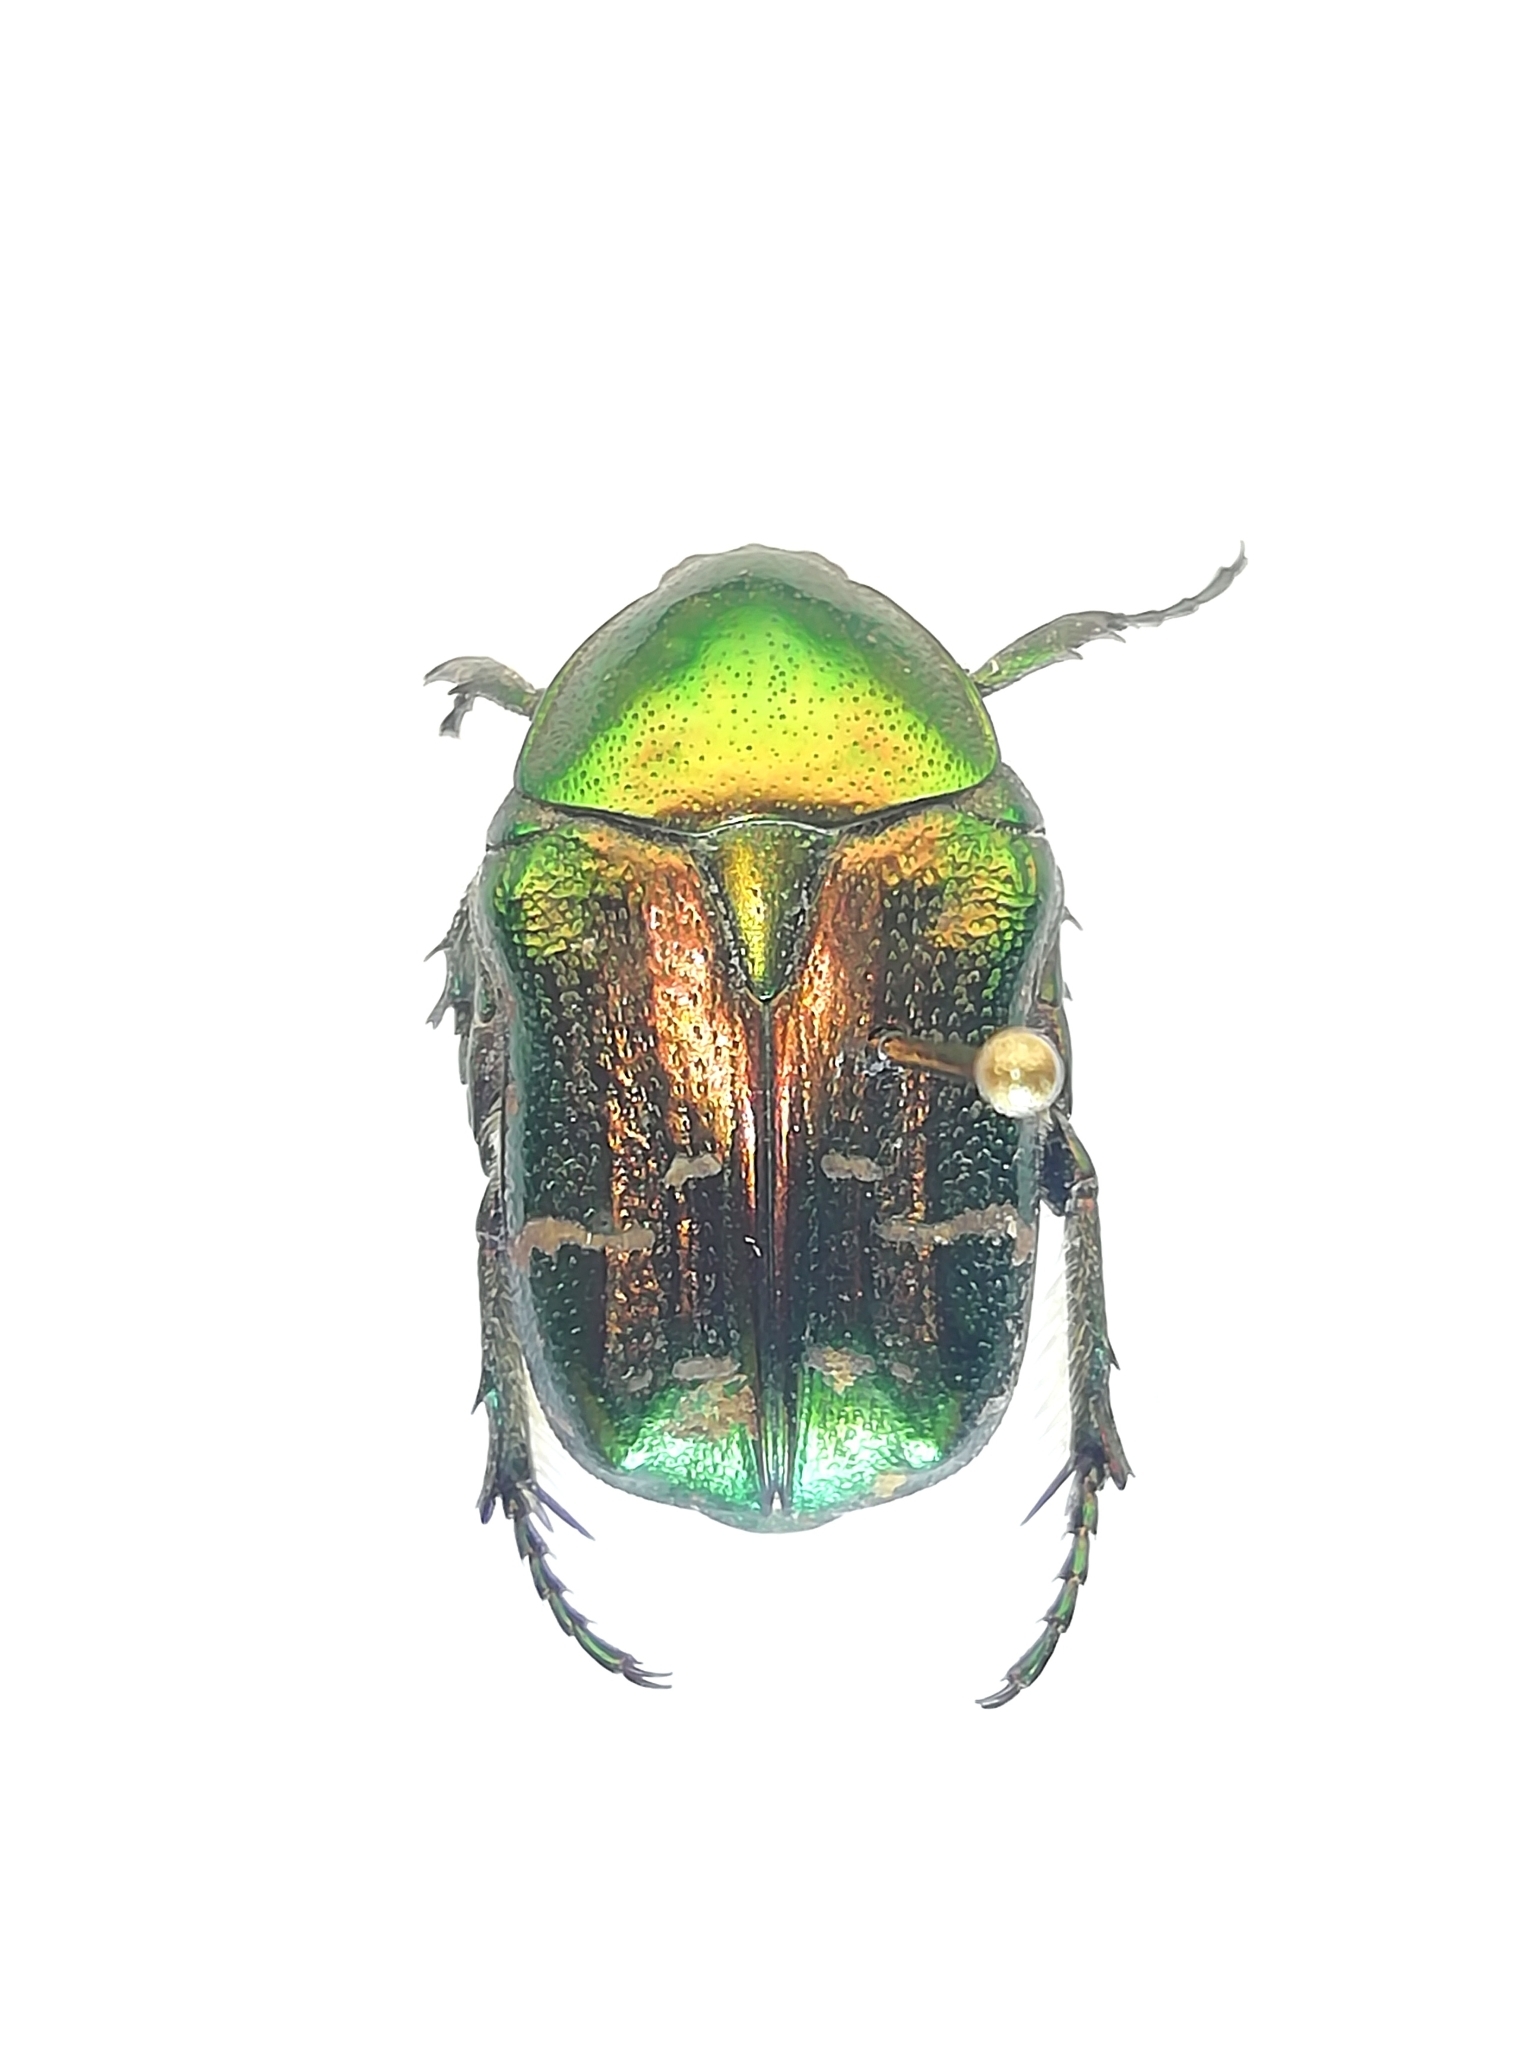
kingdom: Animalia
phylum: Arthropoda
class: Insecta
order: Coleoptera
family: Scarabaeidae
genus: Cetonia
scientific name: Cetonia aurata
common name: Rose chafer
